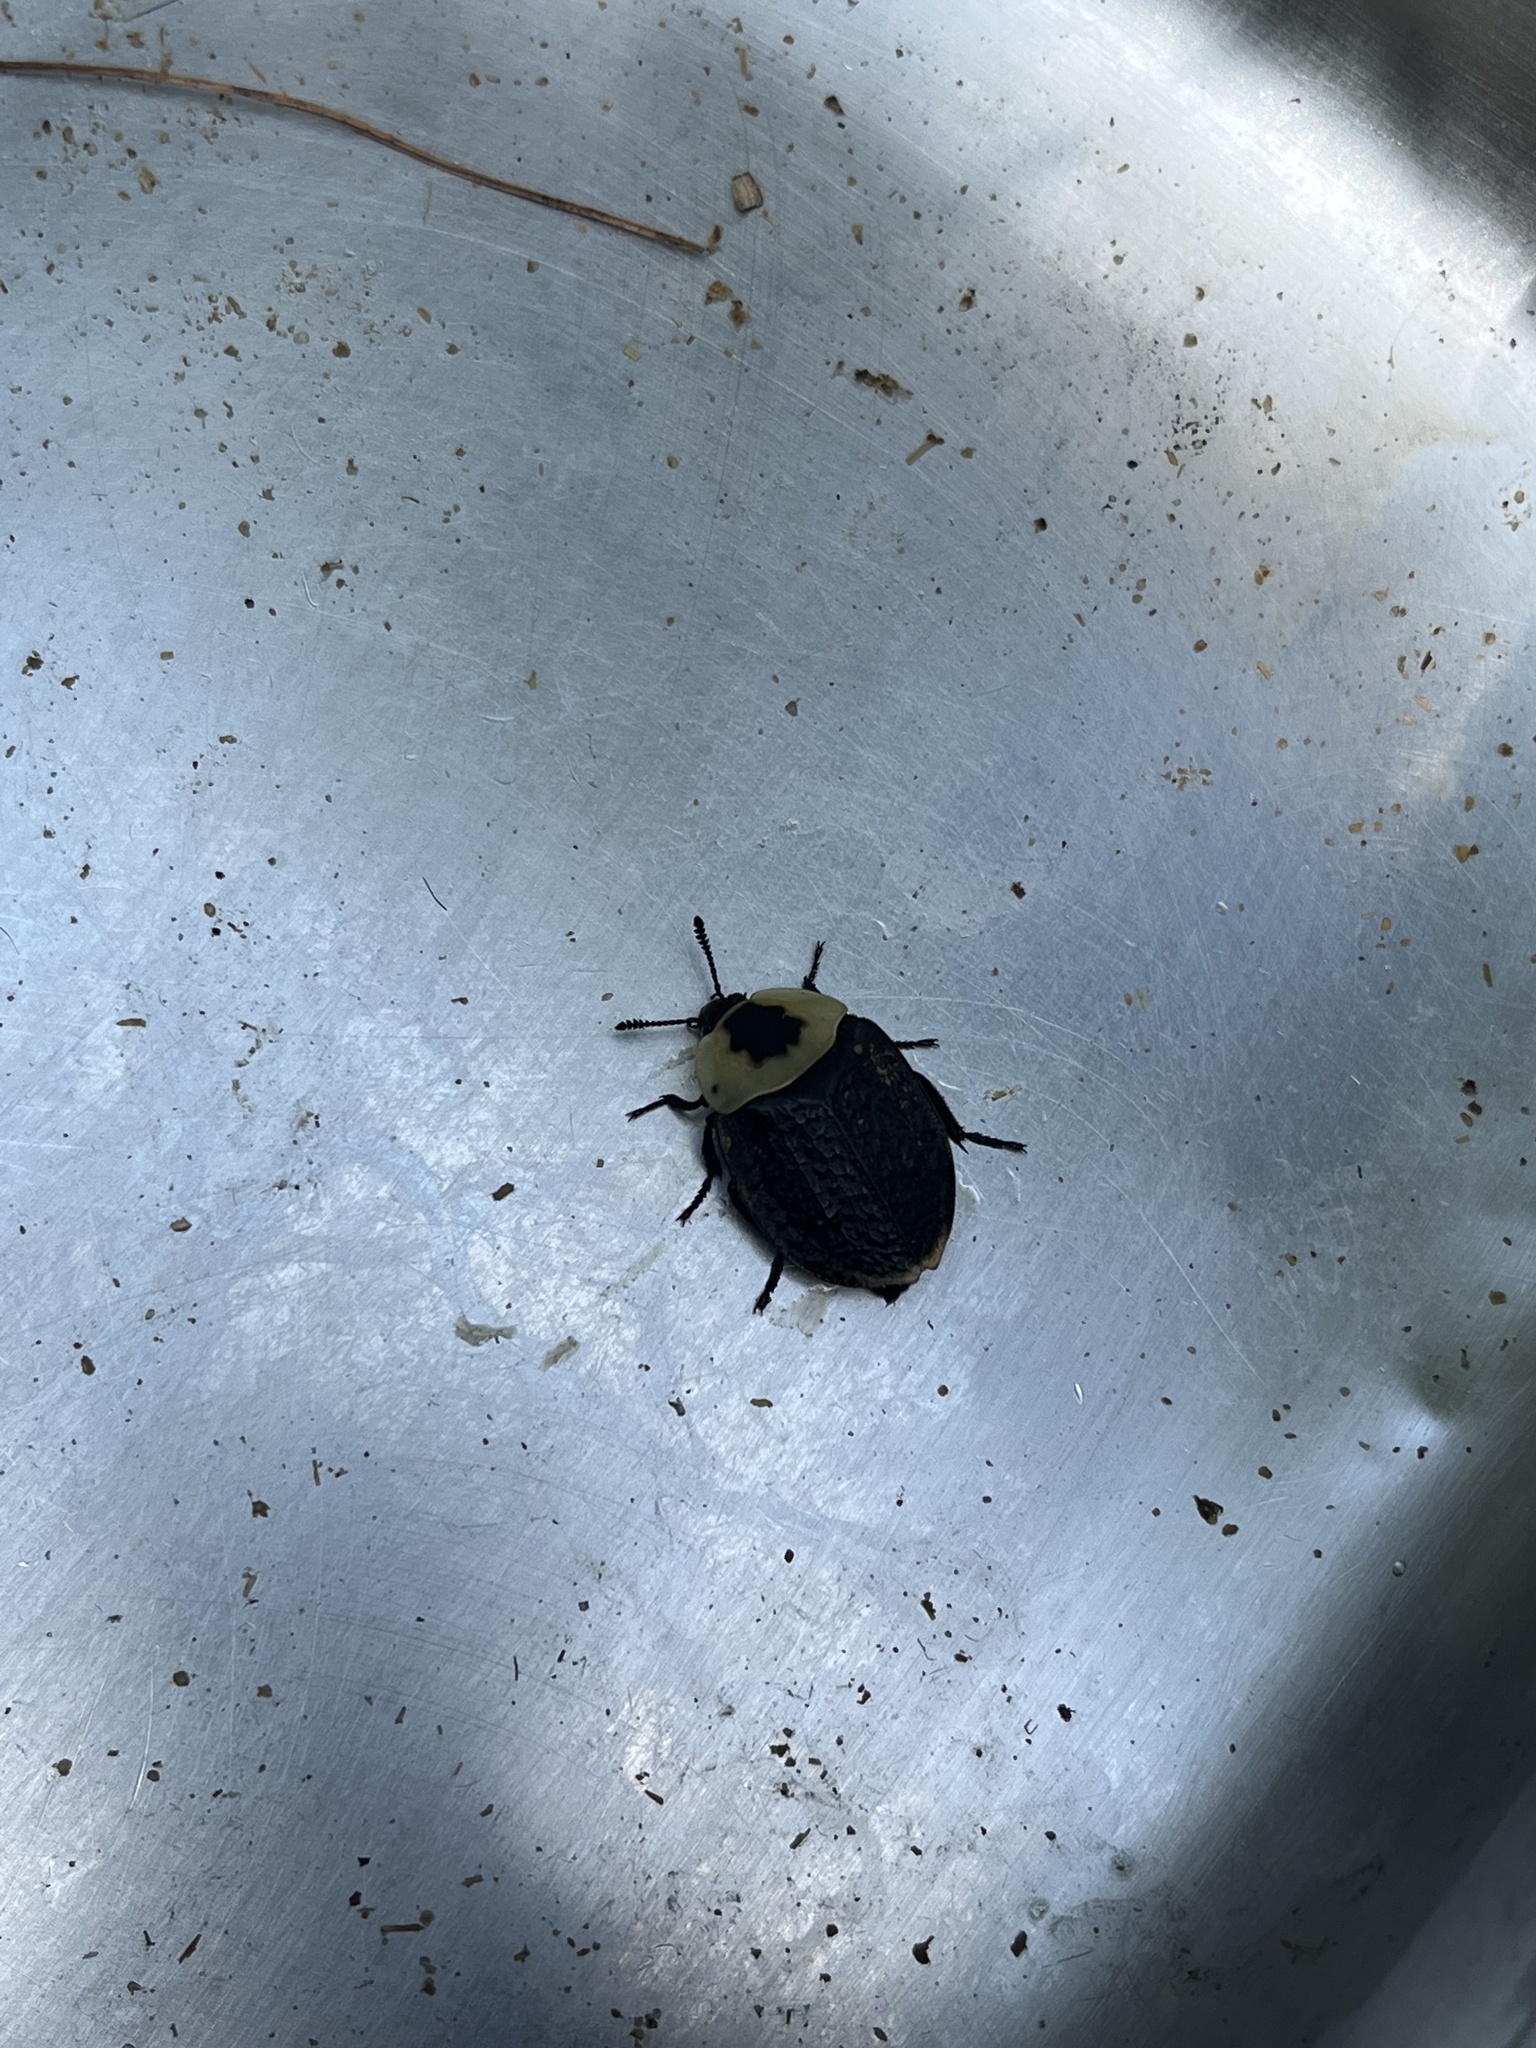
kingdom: Animalia
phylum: Arthropoda
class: Insecta
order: Coleoptera
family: Staphylinidae
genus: Necrophila
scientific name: Necrophila americana
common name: American carrion beetle
